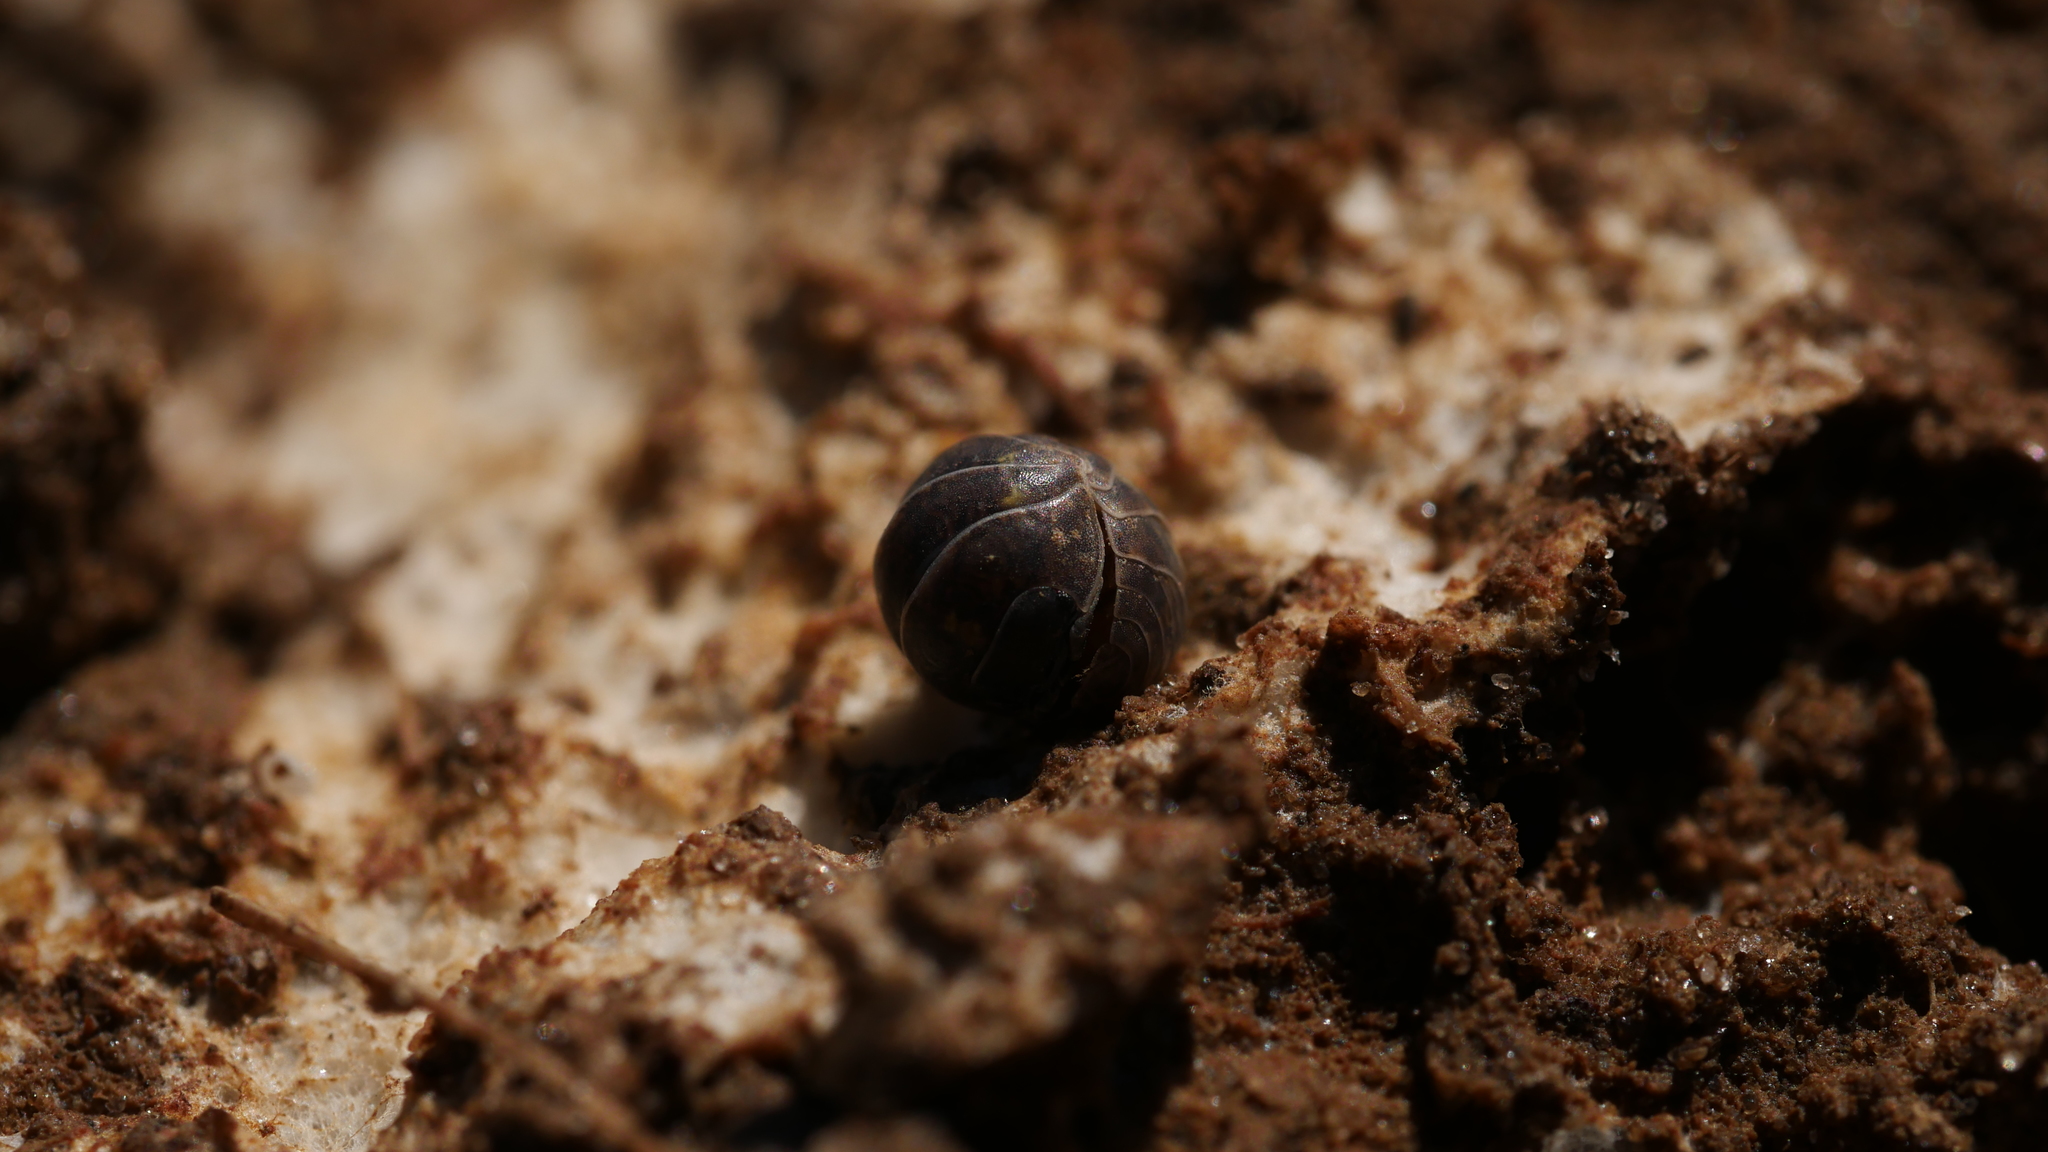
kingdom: Animalia
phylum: Arthropoda
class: Malacostraca
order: Isopoda
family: Armadillidiidae
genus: Armadillidium
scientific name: Armadillidium vulgare
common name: Common pill woodlouse
